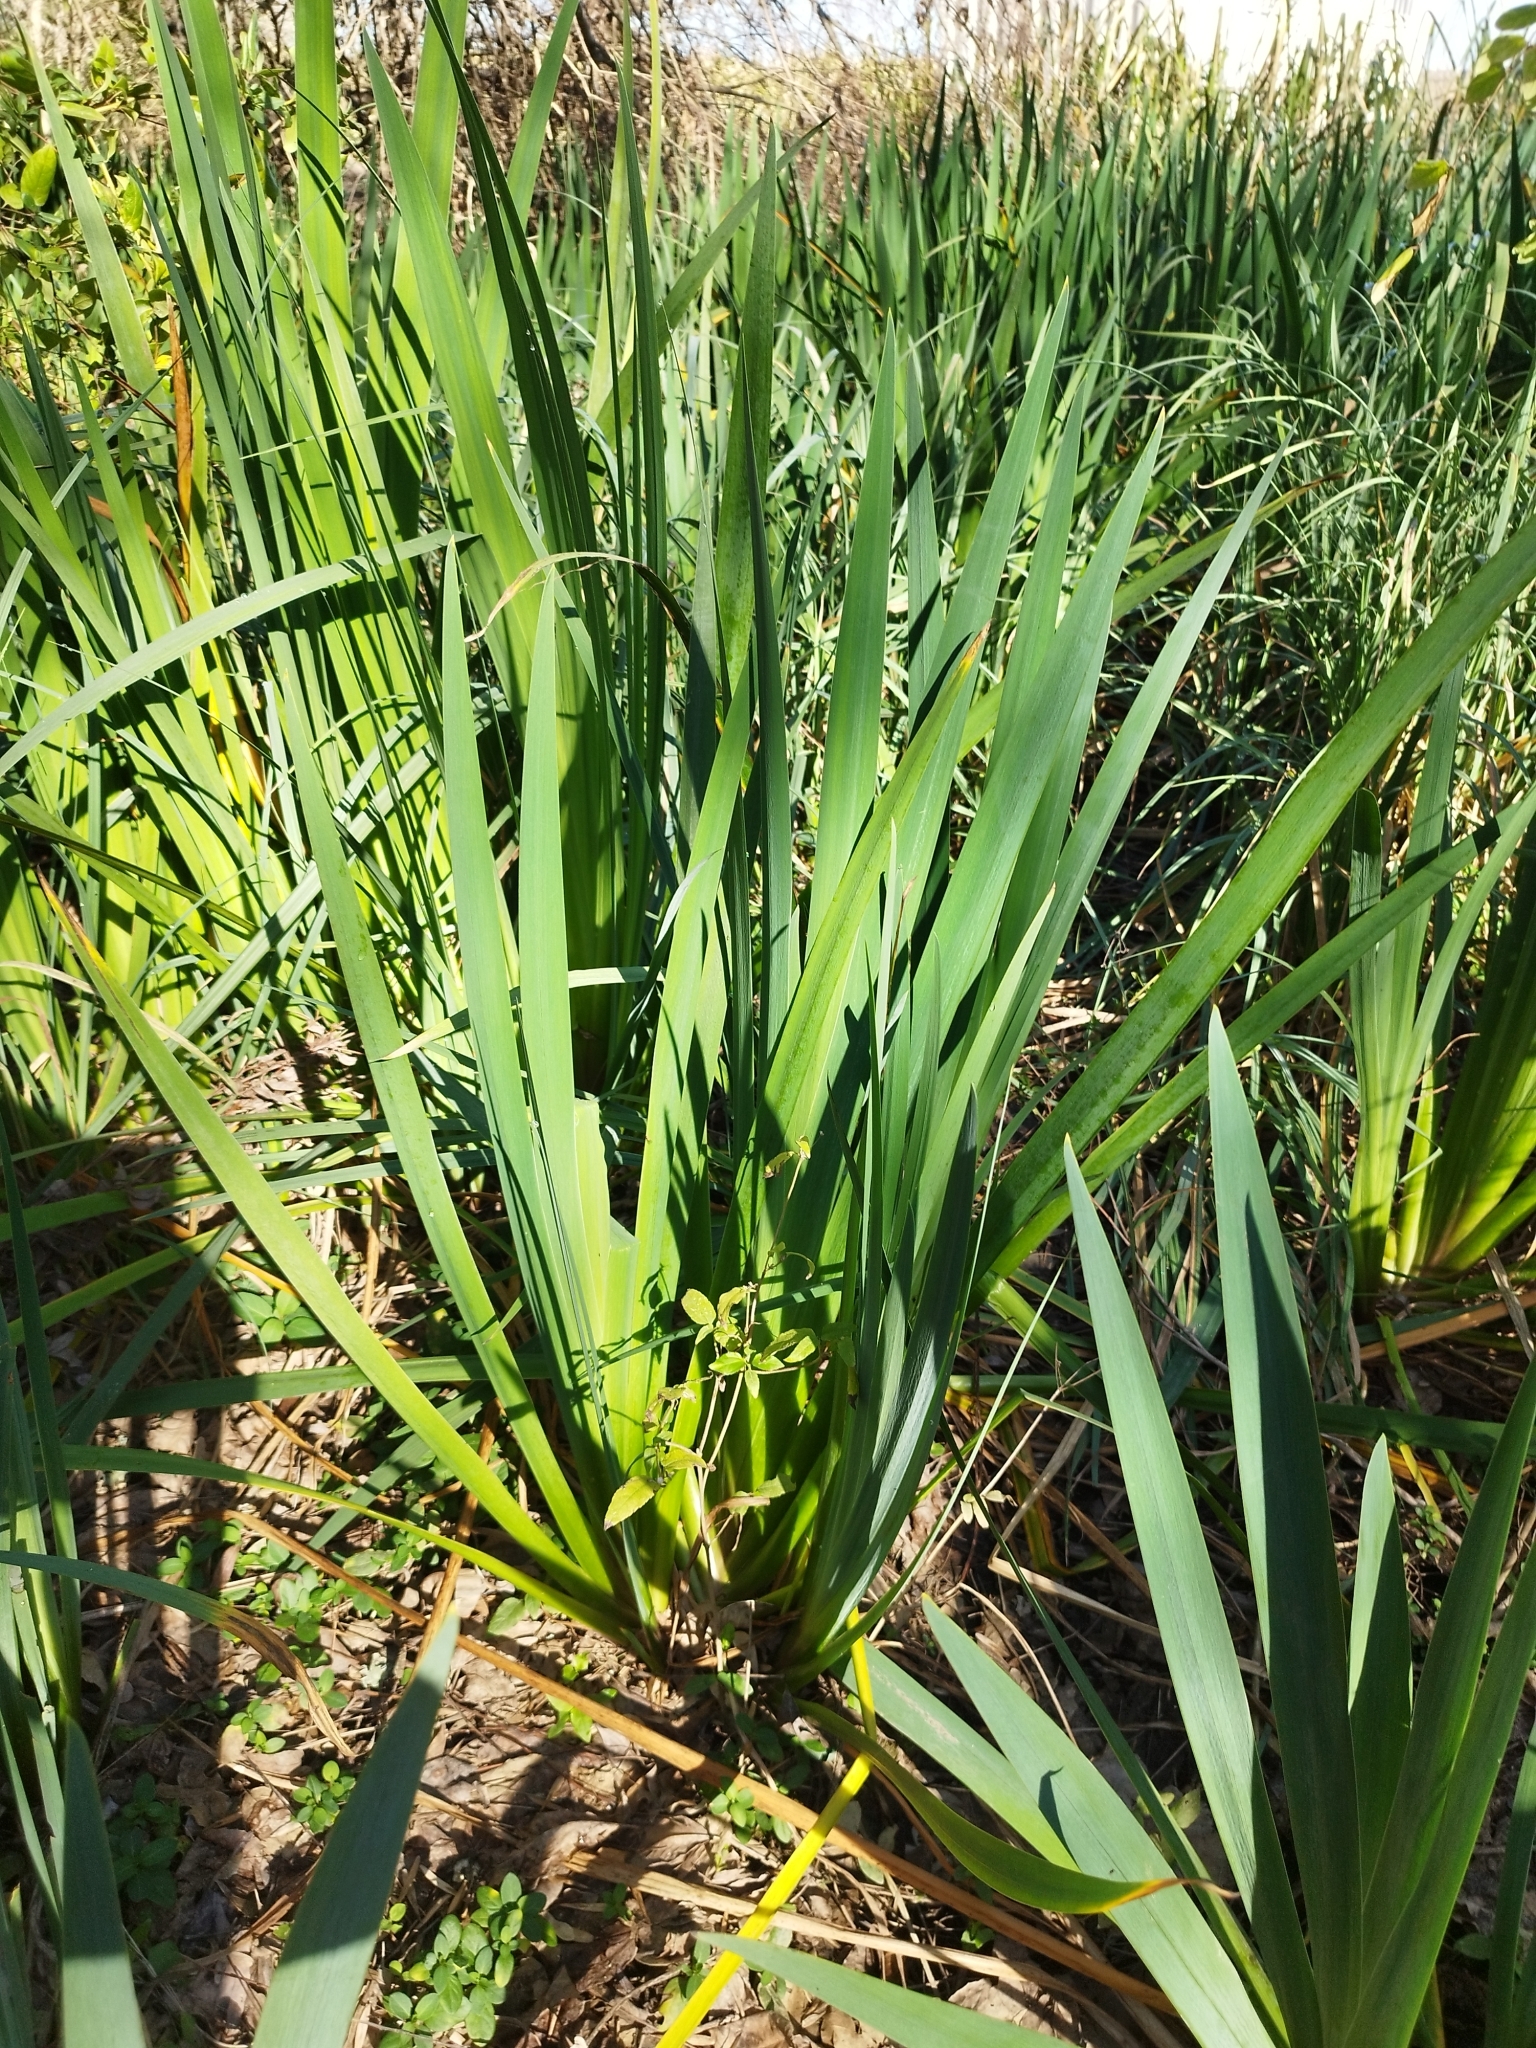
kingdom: Plantae
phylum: Tracheophyta
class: Liliopsida
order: Asparagales
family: Iridaceae
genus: Iris
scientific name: Iris pseudacorus
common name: Yellow flag
